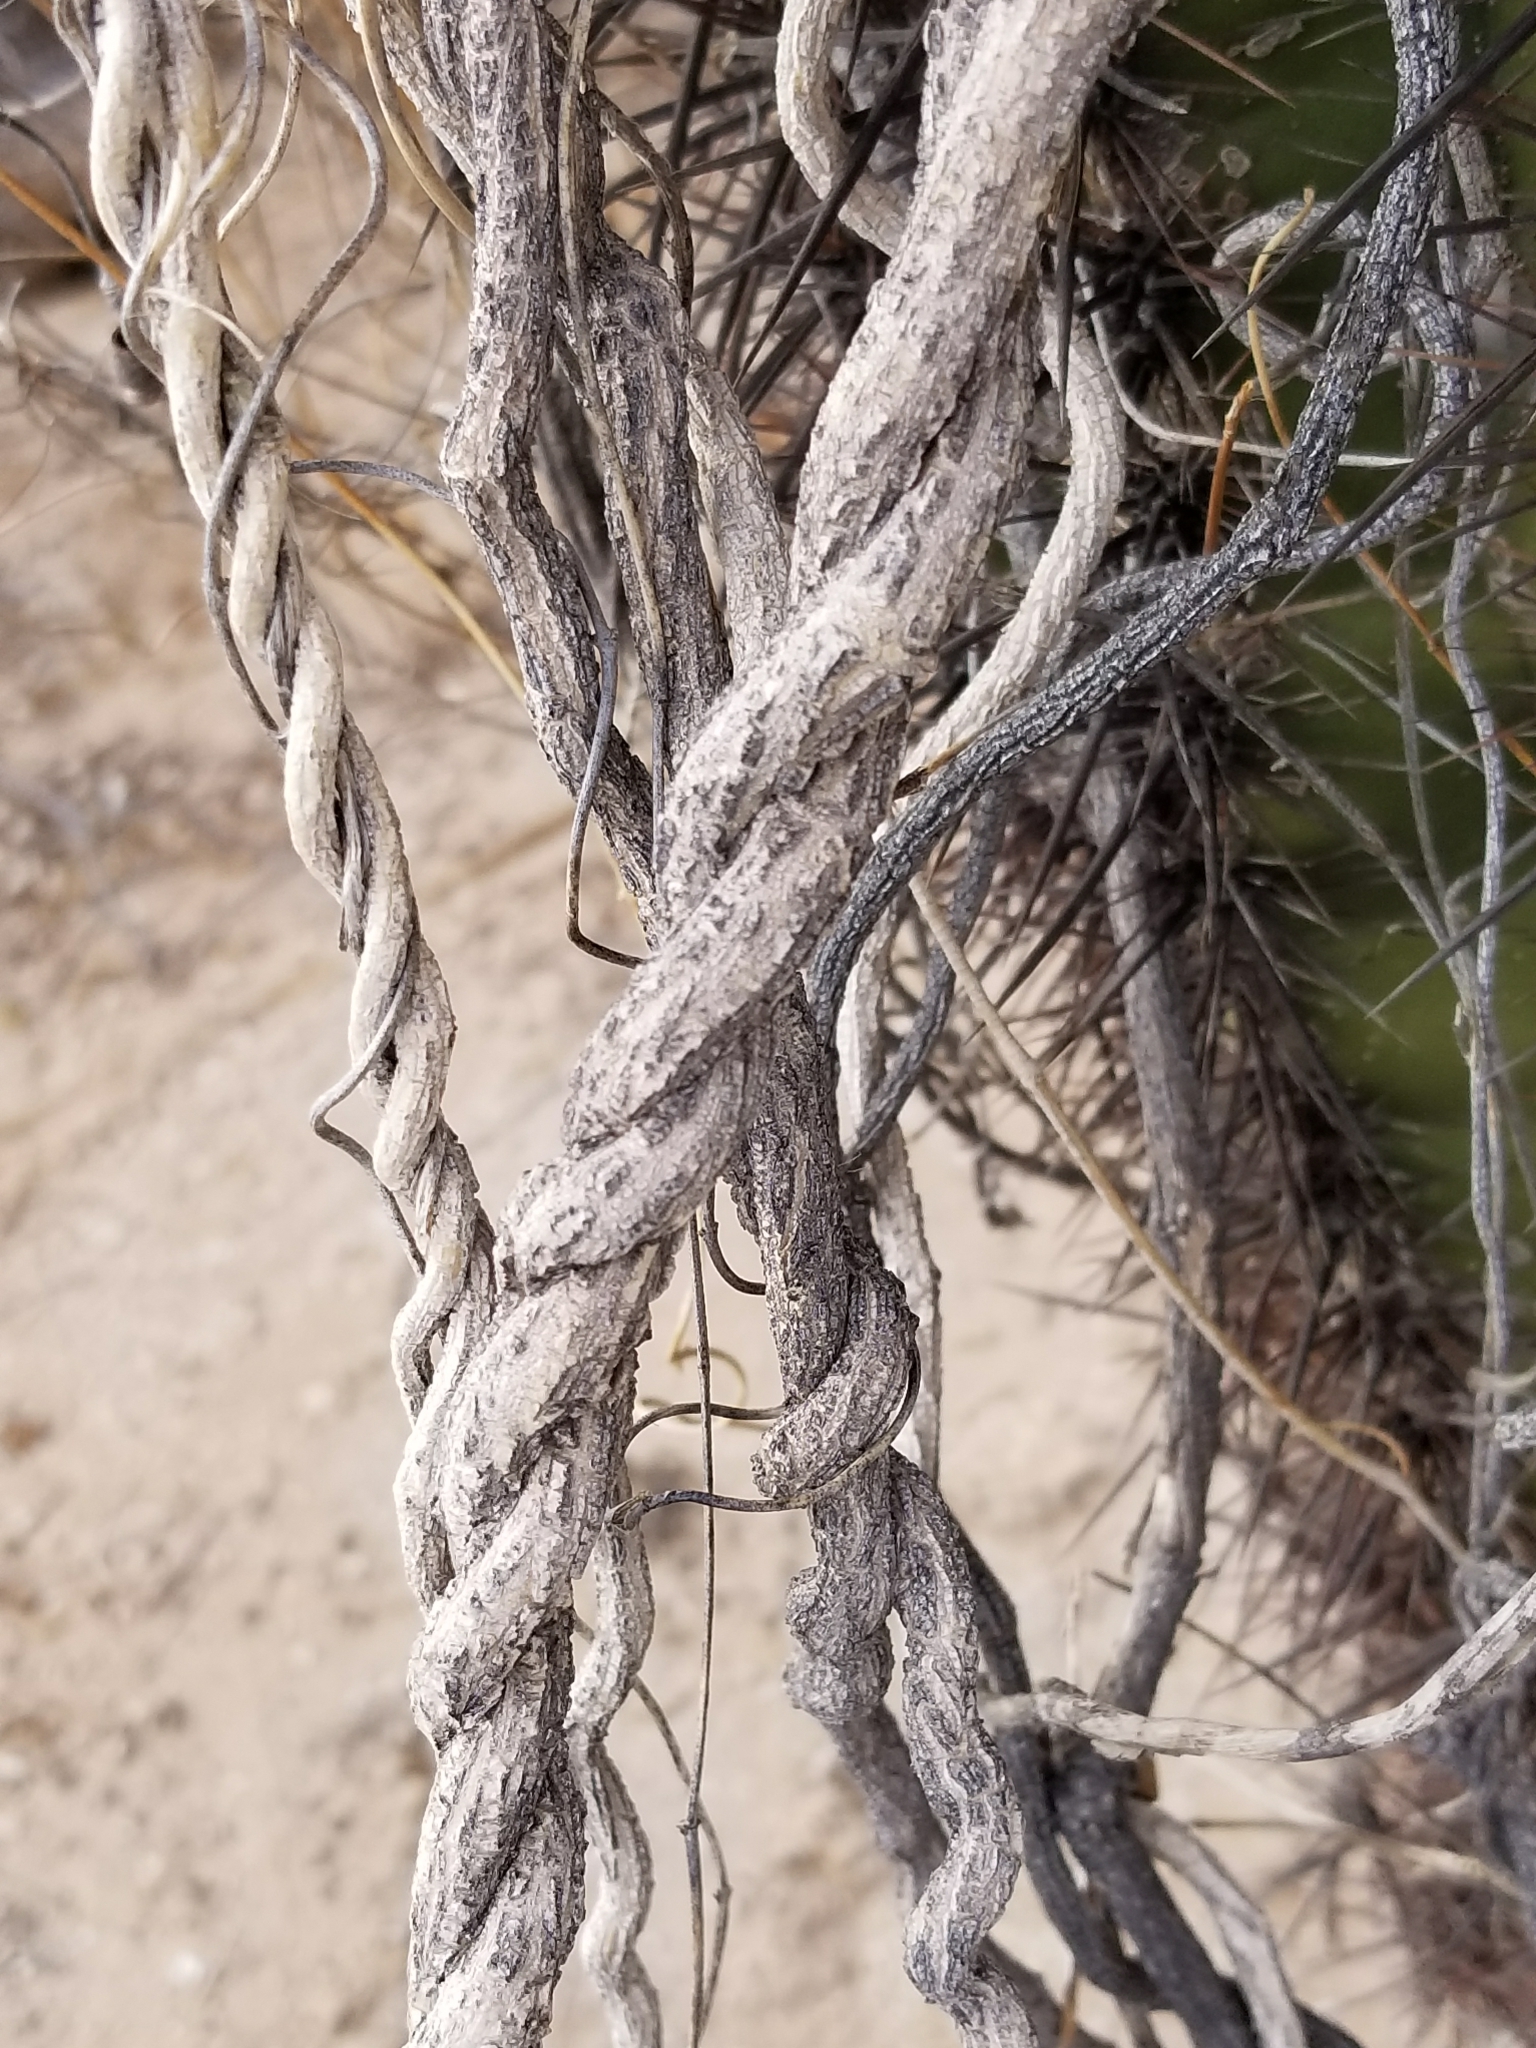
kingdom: Plantae
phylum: Tracheophyta
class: Magnoliopsida
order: Gentianales
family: Apocynaceae
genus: Funastrum
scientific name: Funastrum heterophyllum
